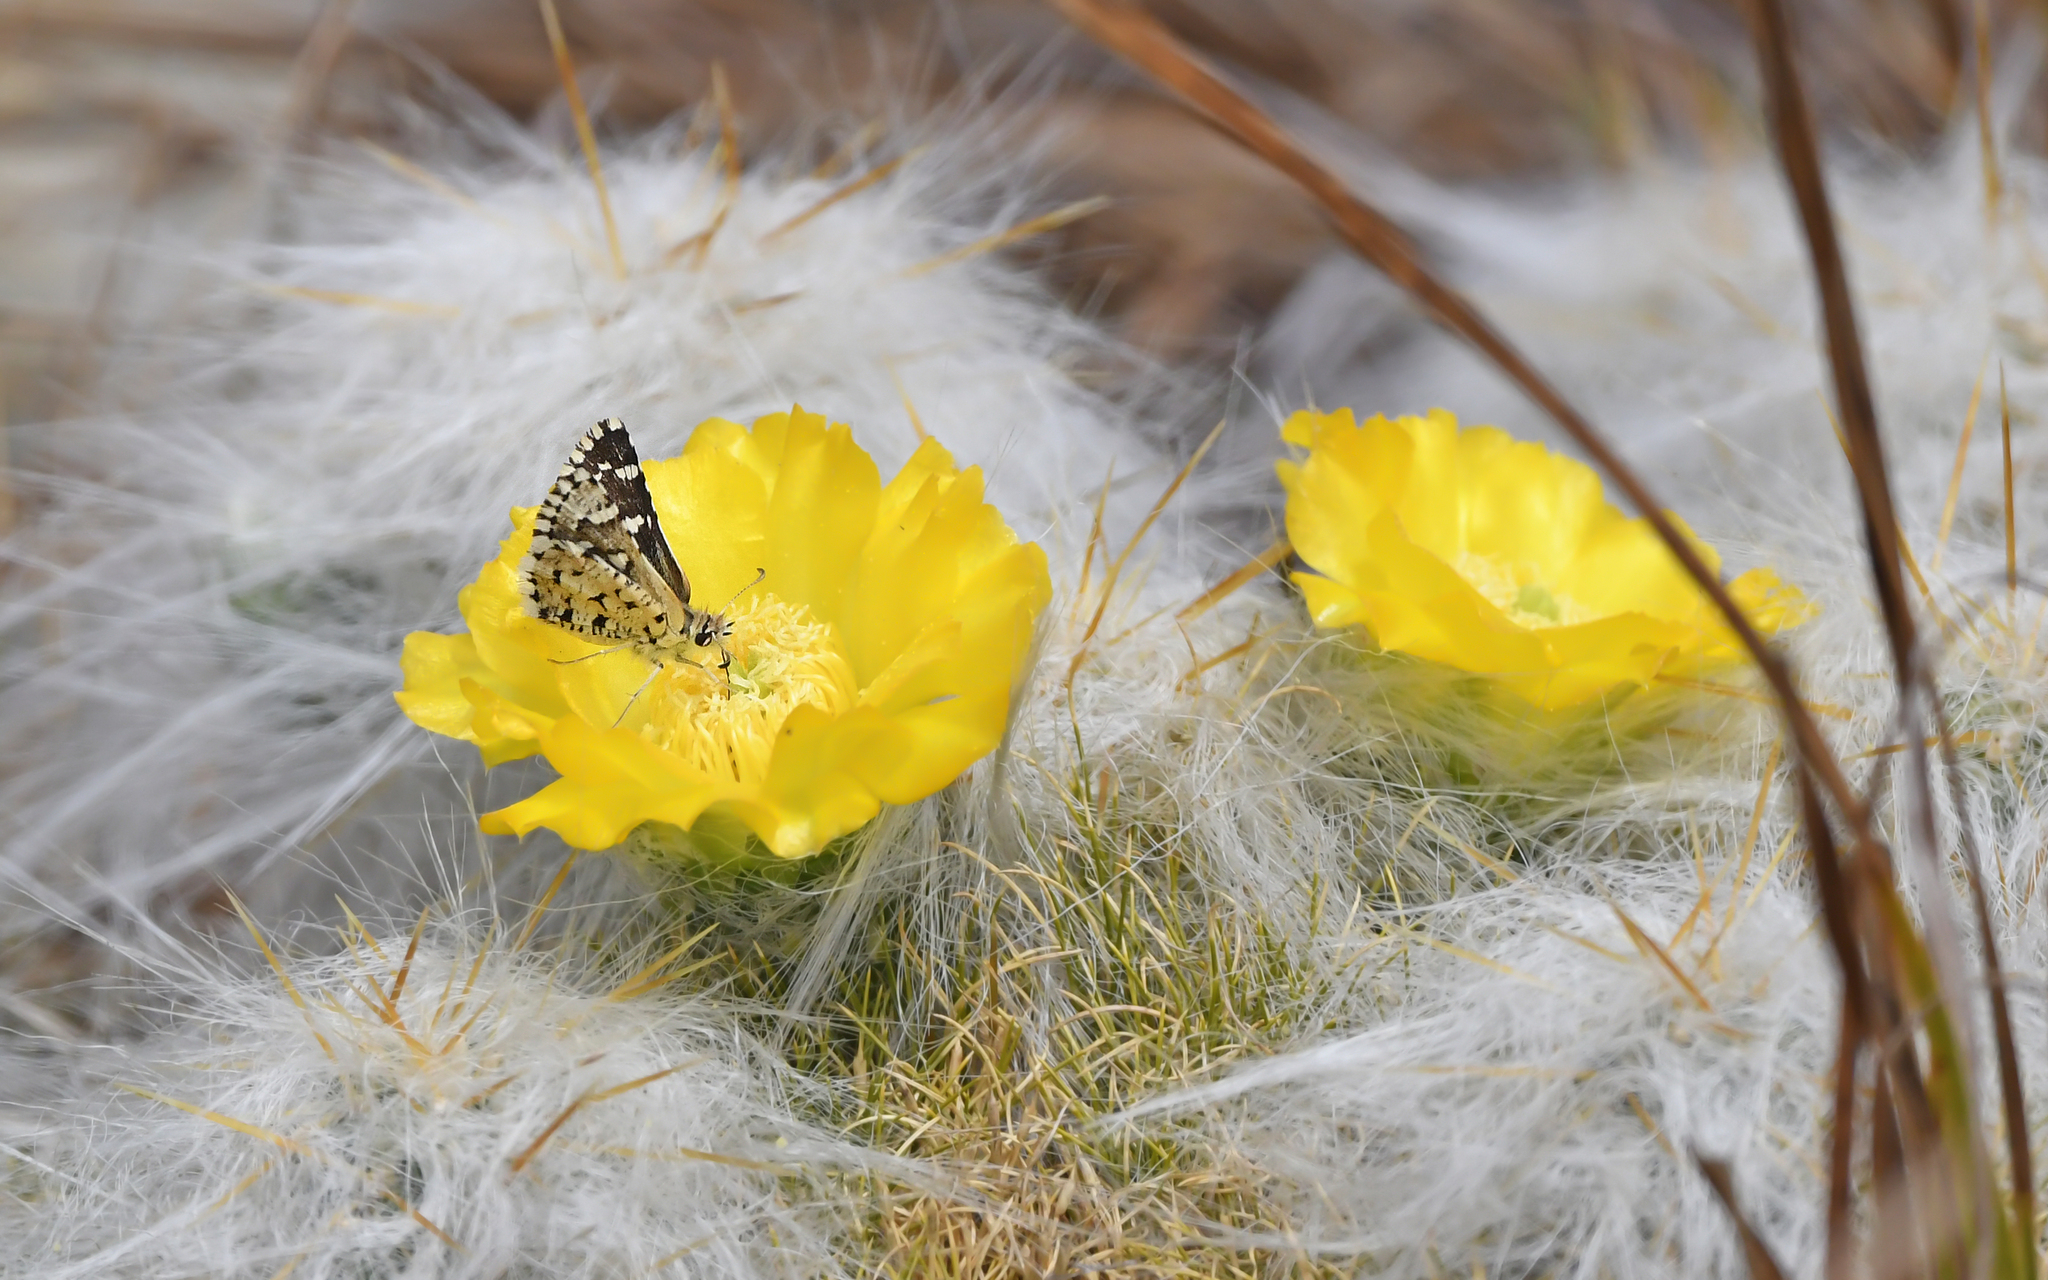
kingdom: Animalia
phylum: Arthropoda
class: Insecta
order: Lepidoptera
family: Hesperiidae
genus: Chirgus
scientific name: Chirgus bocchoris
